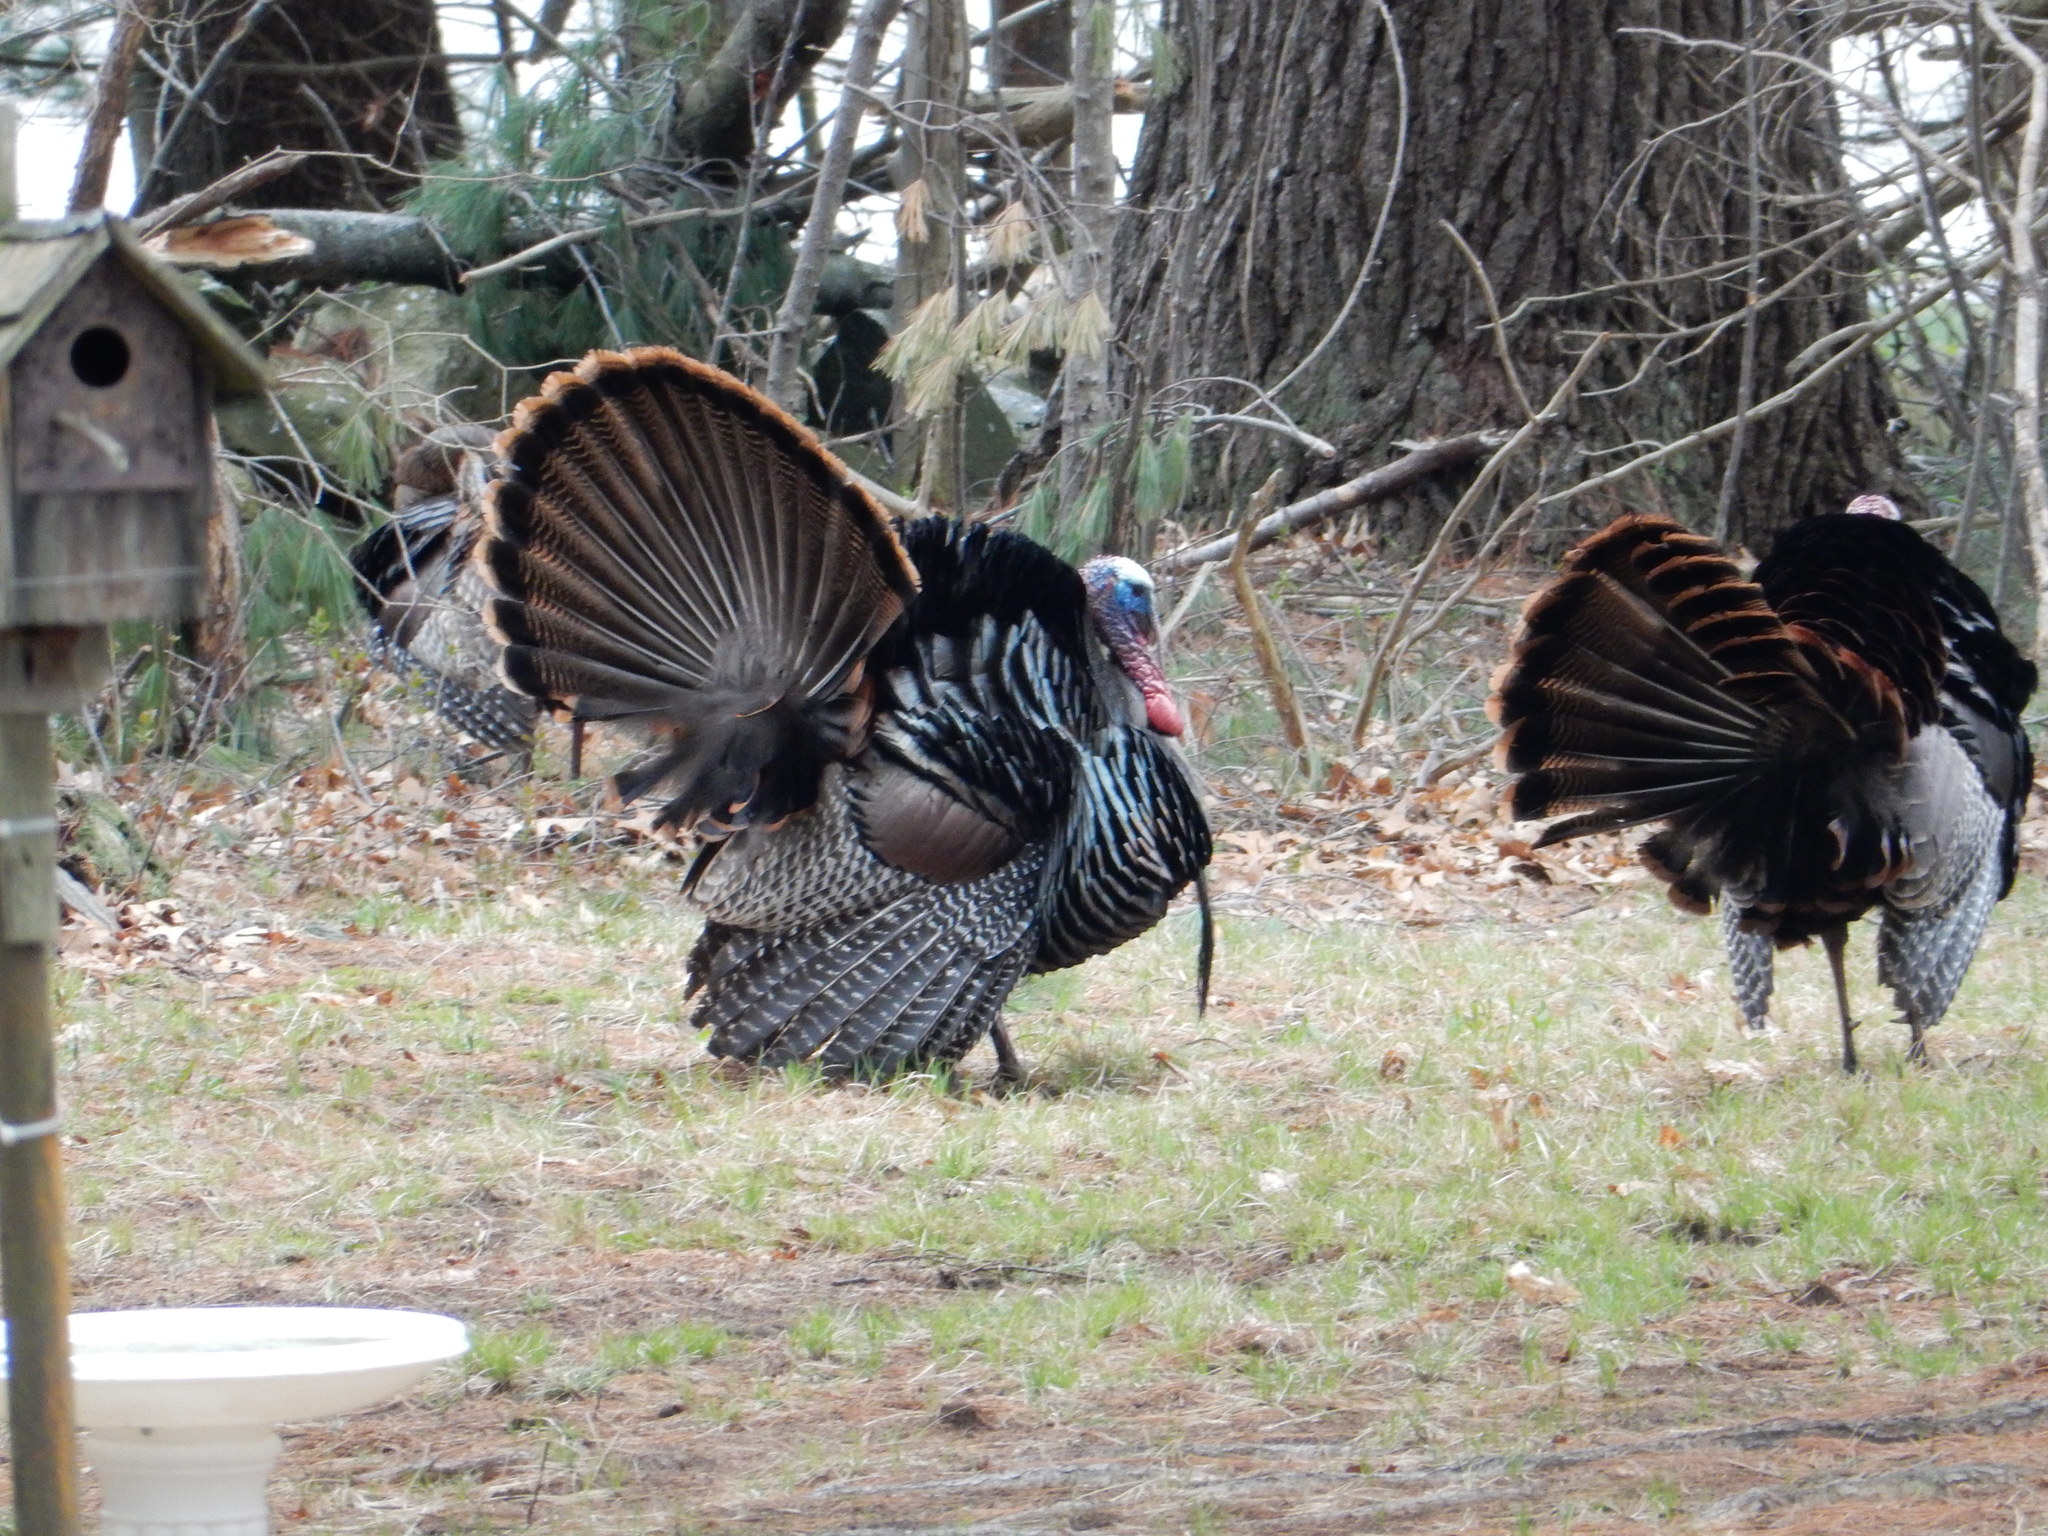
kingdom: Animalia
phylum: Chordata
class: Aves
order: Galliformes
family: Phasianidae
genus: Meleagris
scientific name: Meleagris gallopavo
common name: Wild turkey
